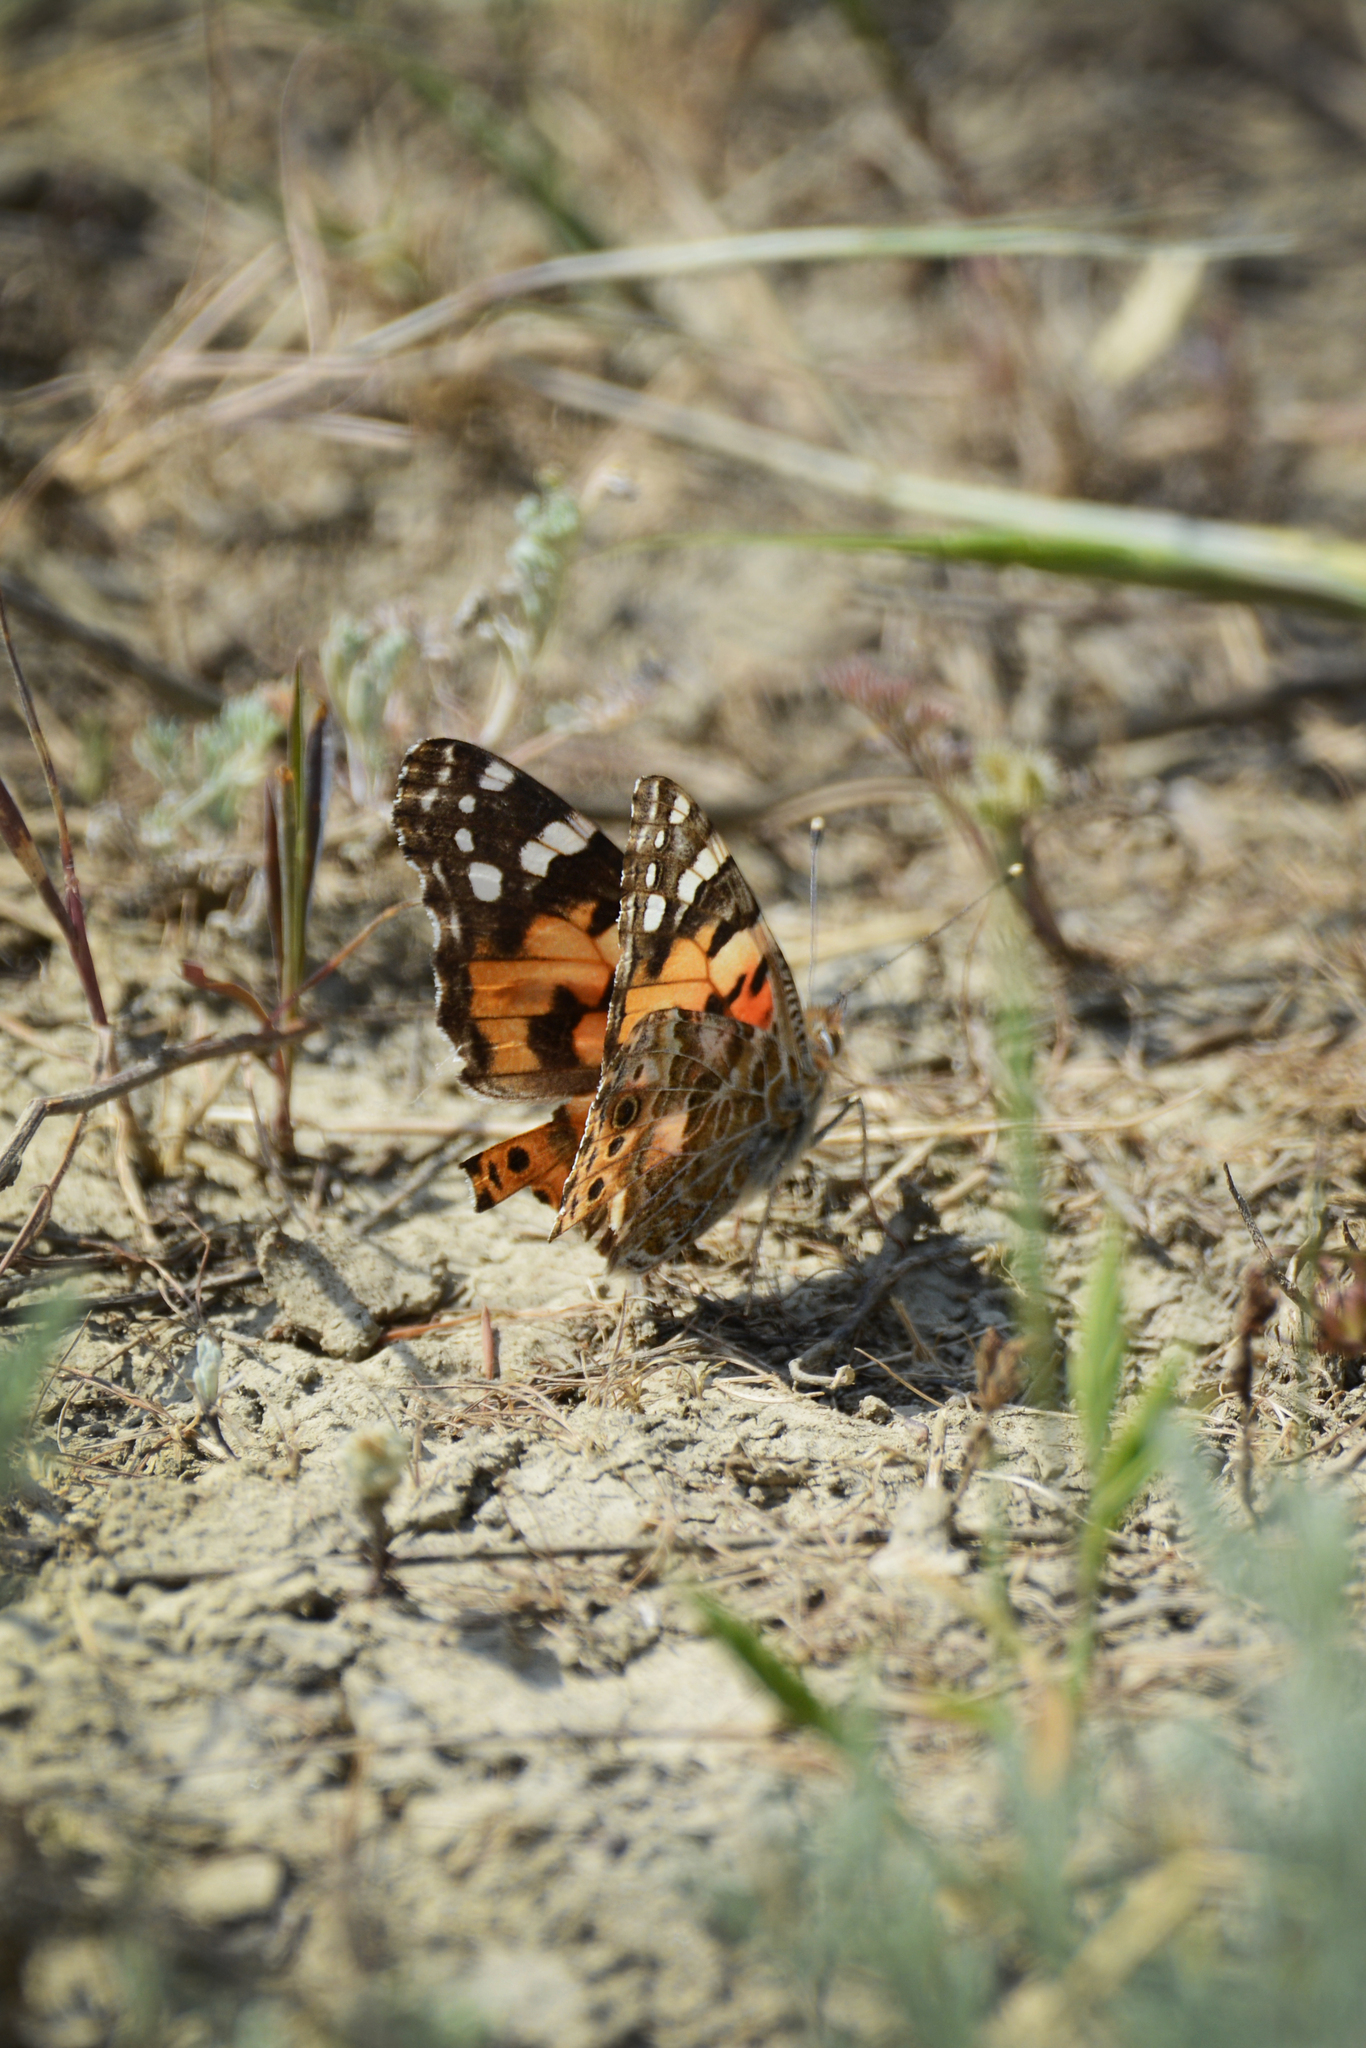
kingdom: Animalia
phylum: Arthropoda
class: Insecta
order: Lepidoptera
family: Nymphalidae
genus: Vanessa
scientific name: Vanessa cardui
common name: Painted lady
